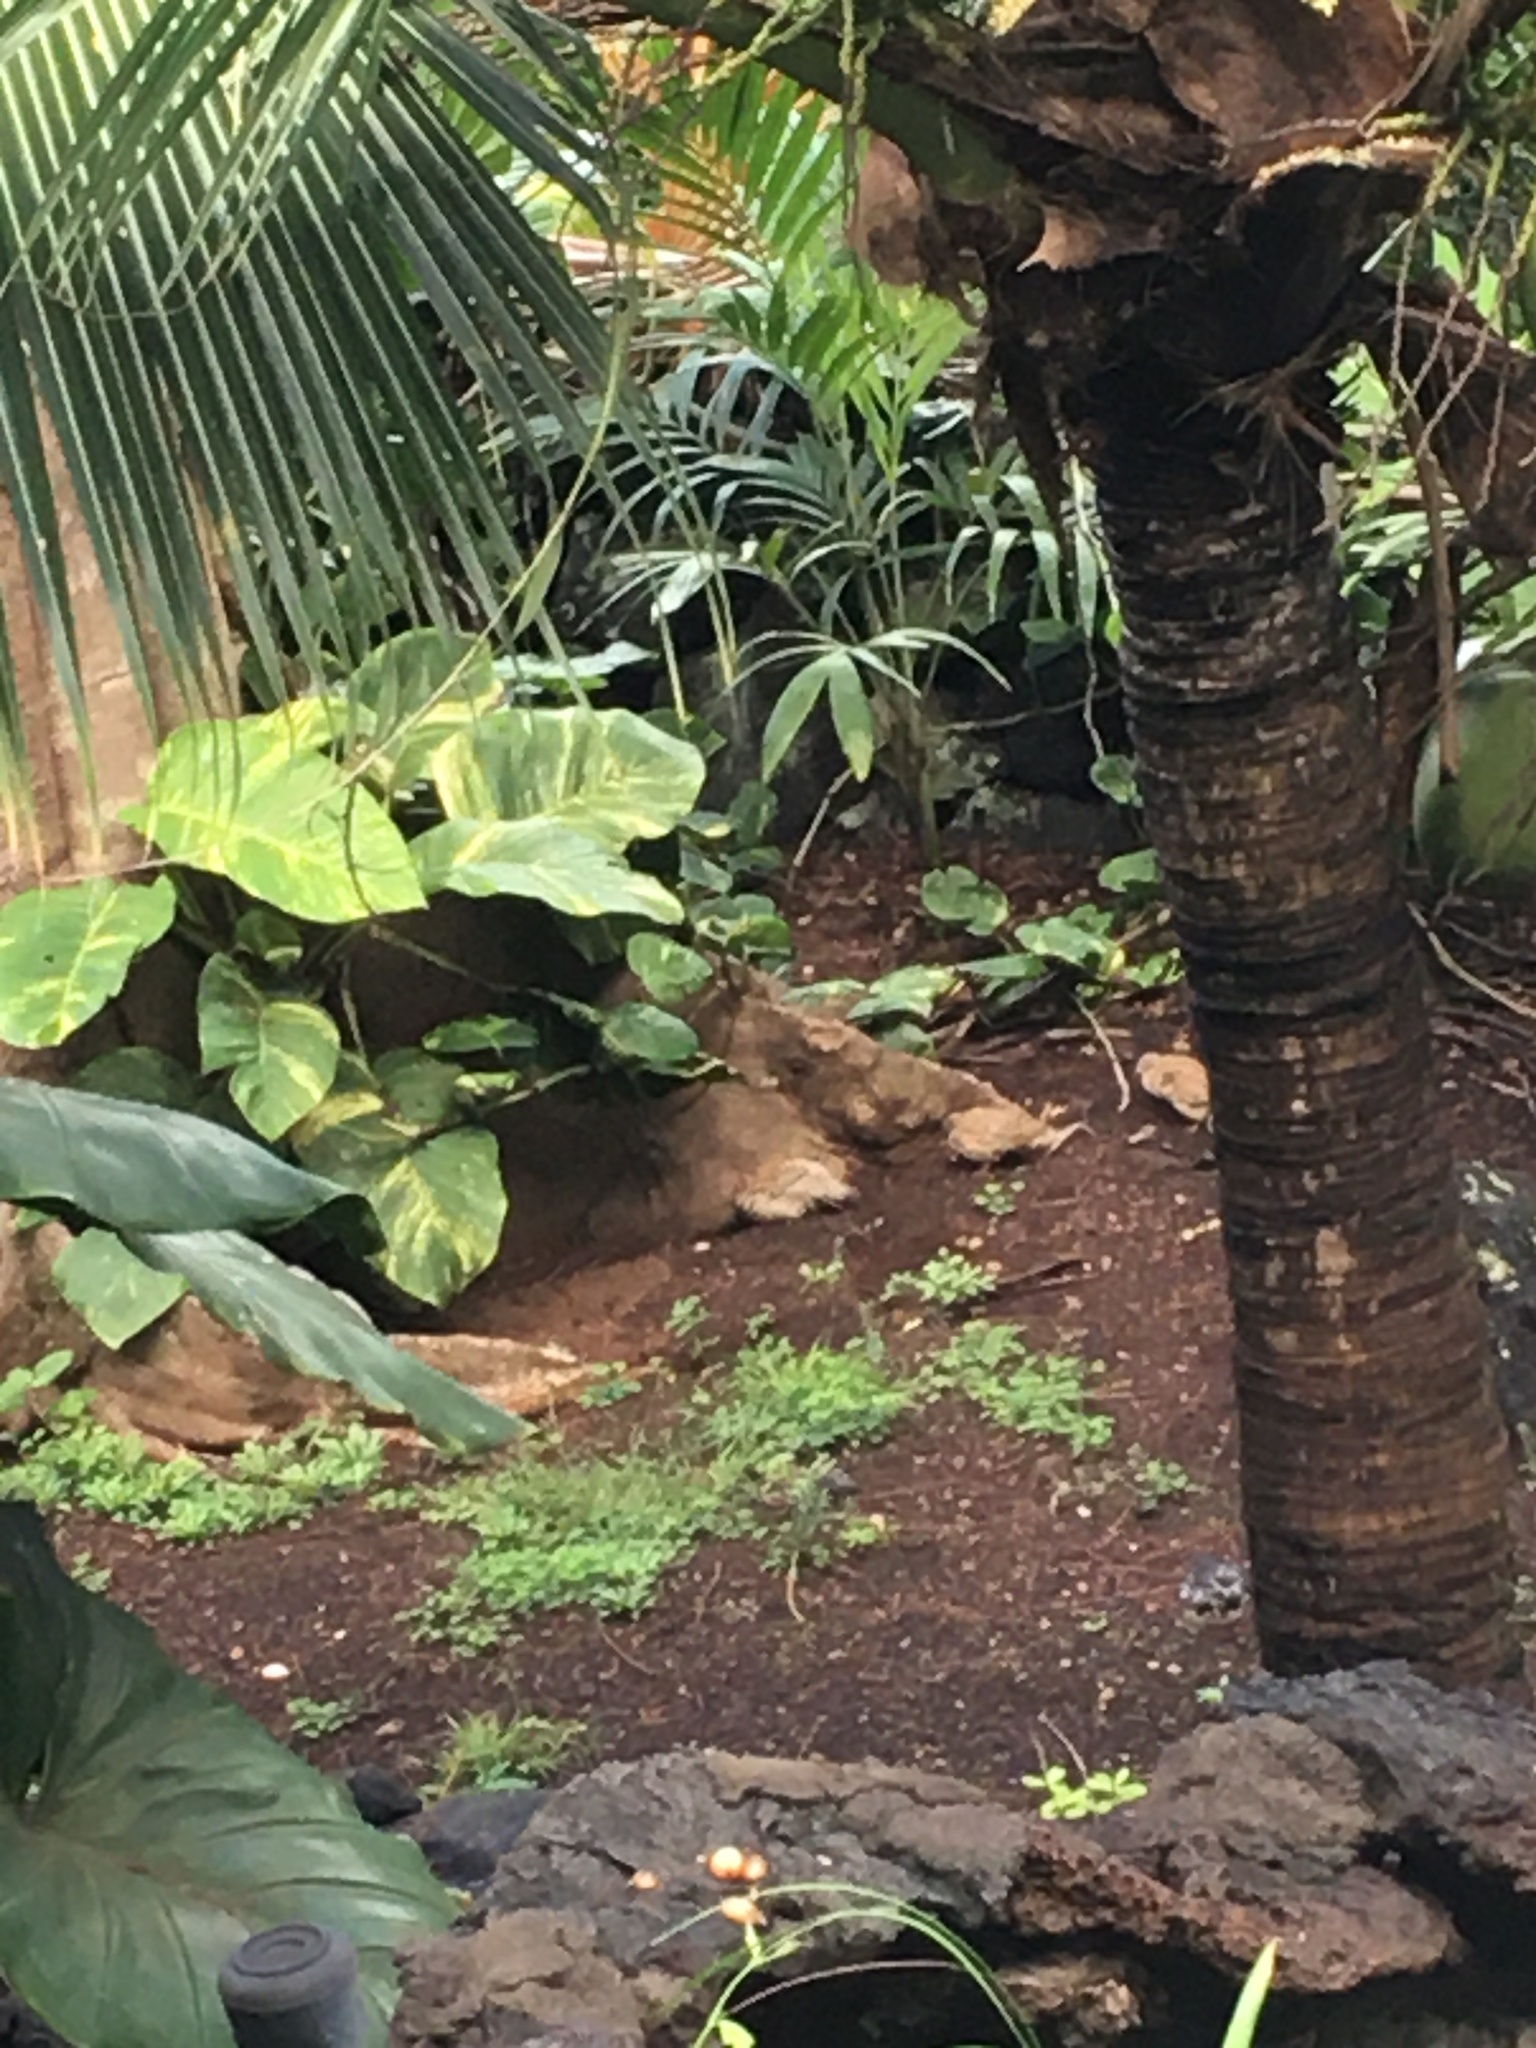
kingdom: Animalia
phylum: Chordata
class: Aves
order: Galliformes
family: Phasianidae
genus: Ortygornis
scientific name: Ortygornis pondicerianus
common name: Grey francolin
